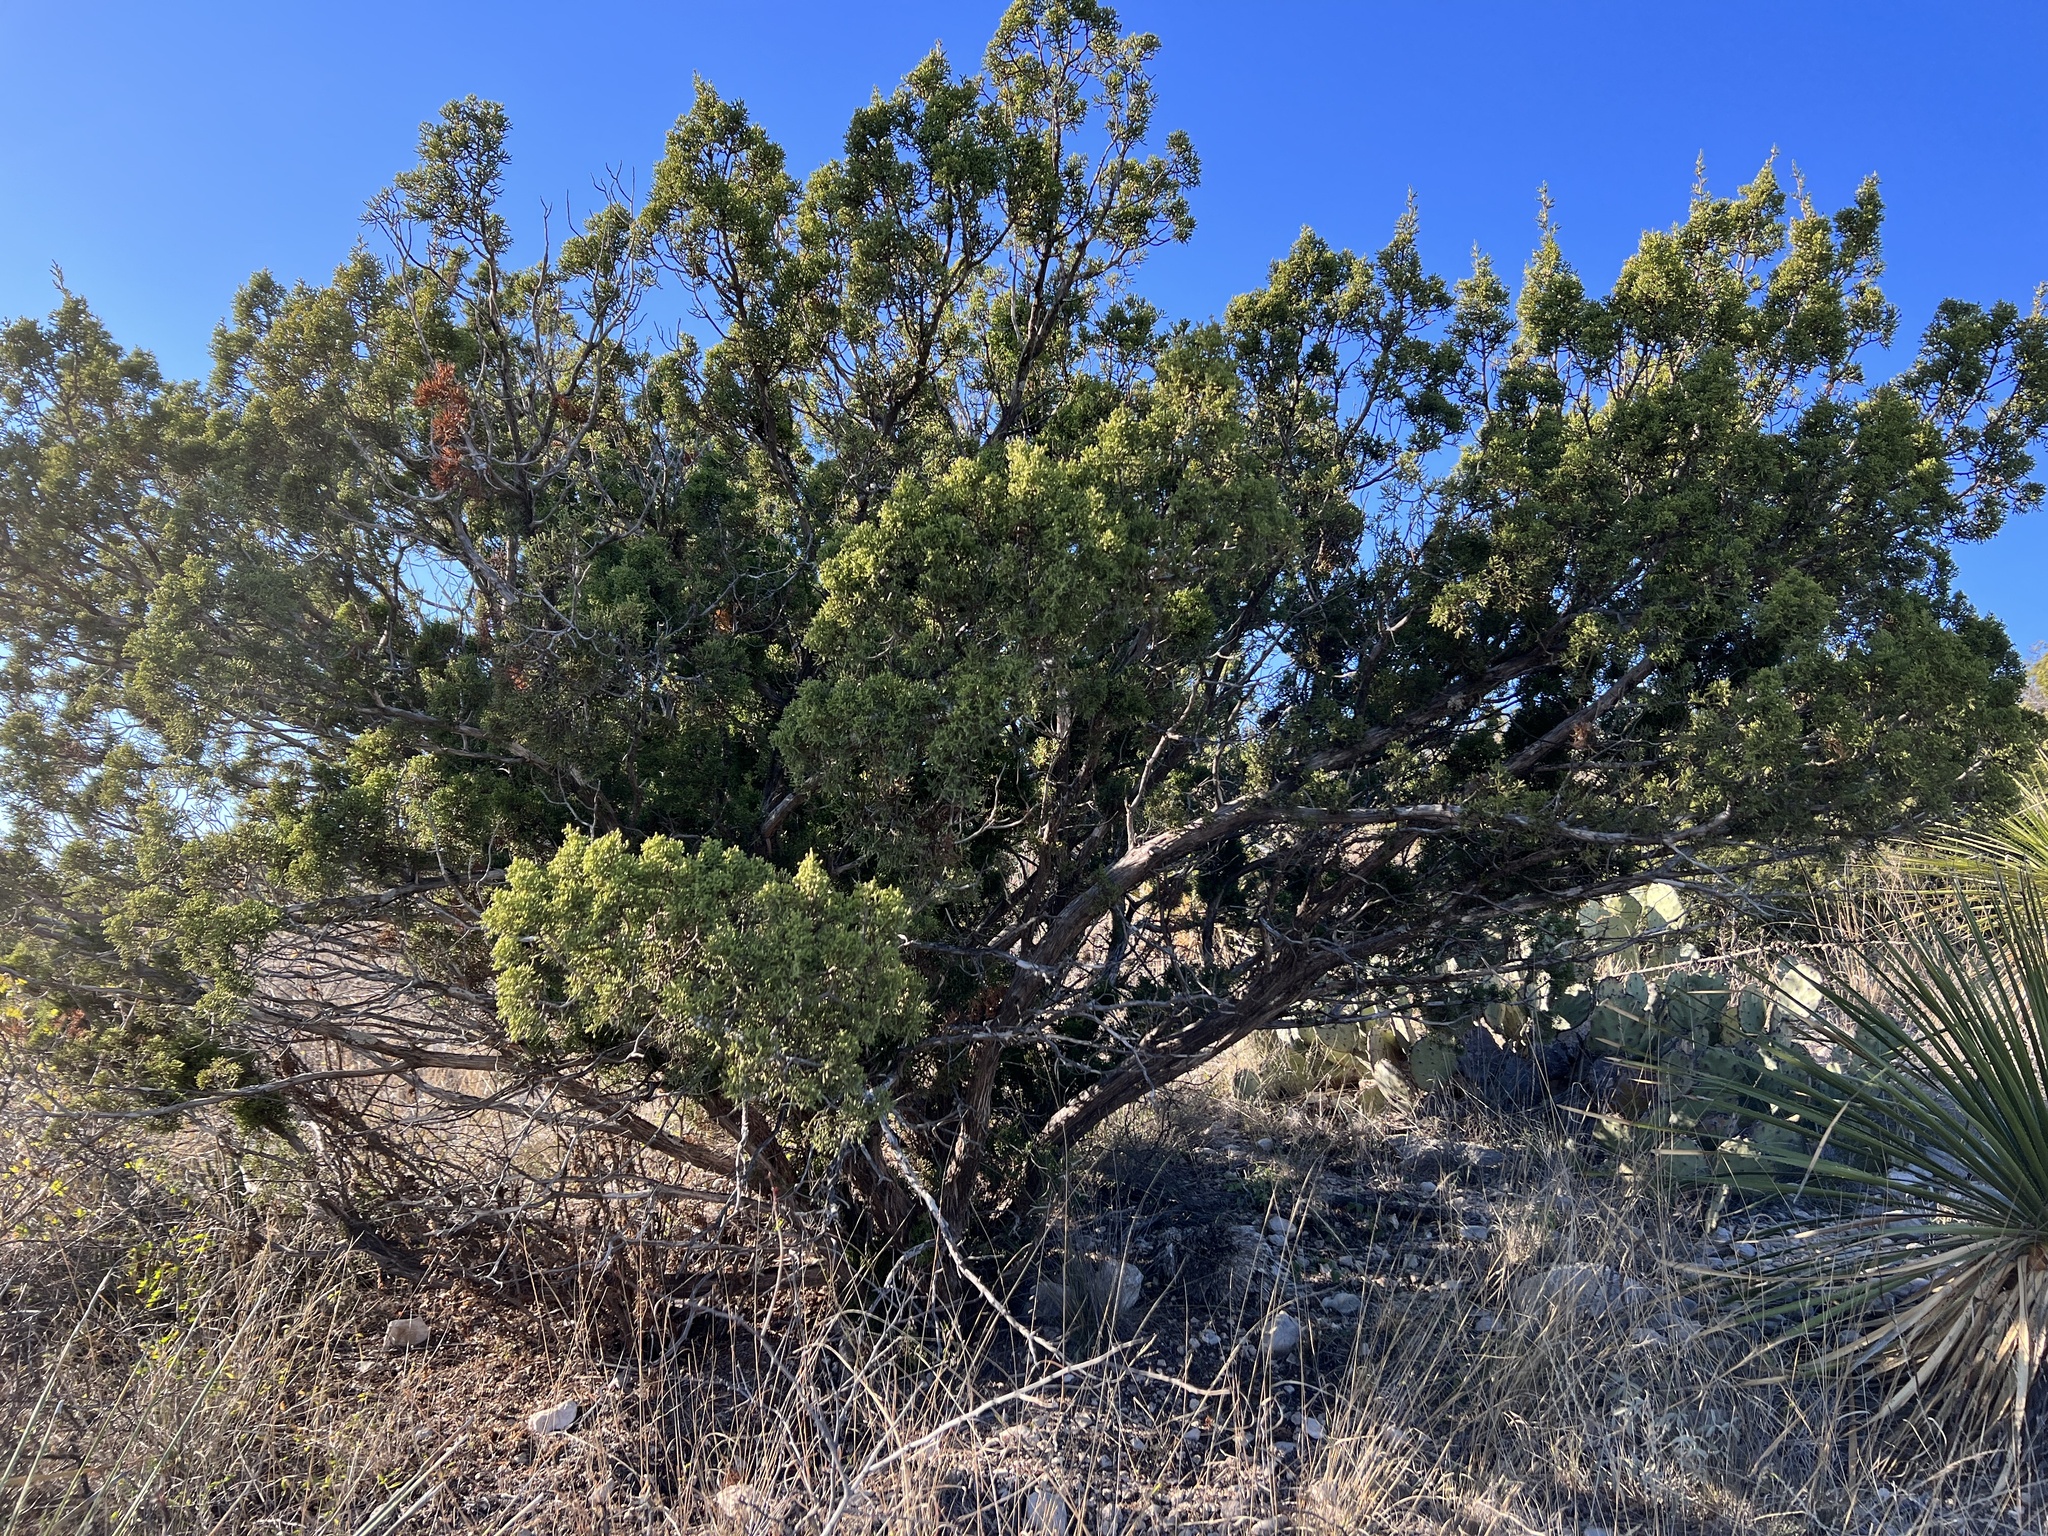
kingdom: Plantae
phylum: Tracheophyta
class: Pinopsida
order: Pinales
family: Cupressaceae
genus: Juniperus
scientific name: Juniperus pinchotii
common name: Pinchot juniper
